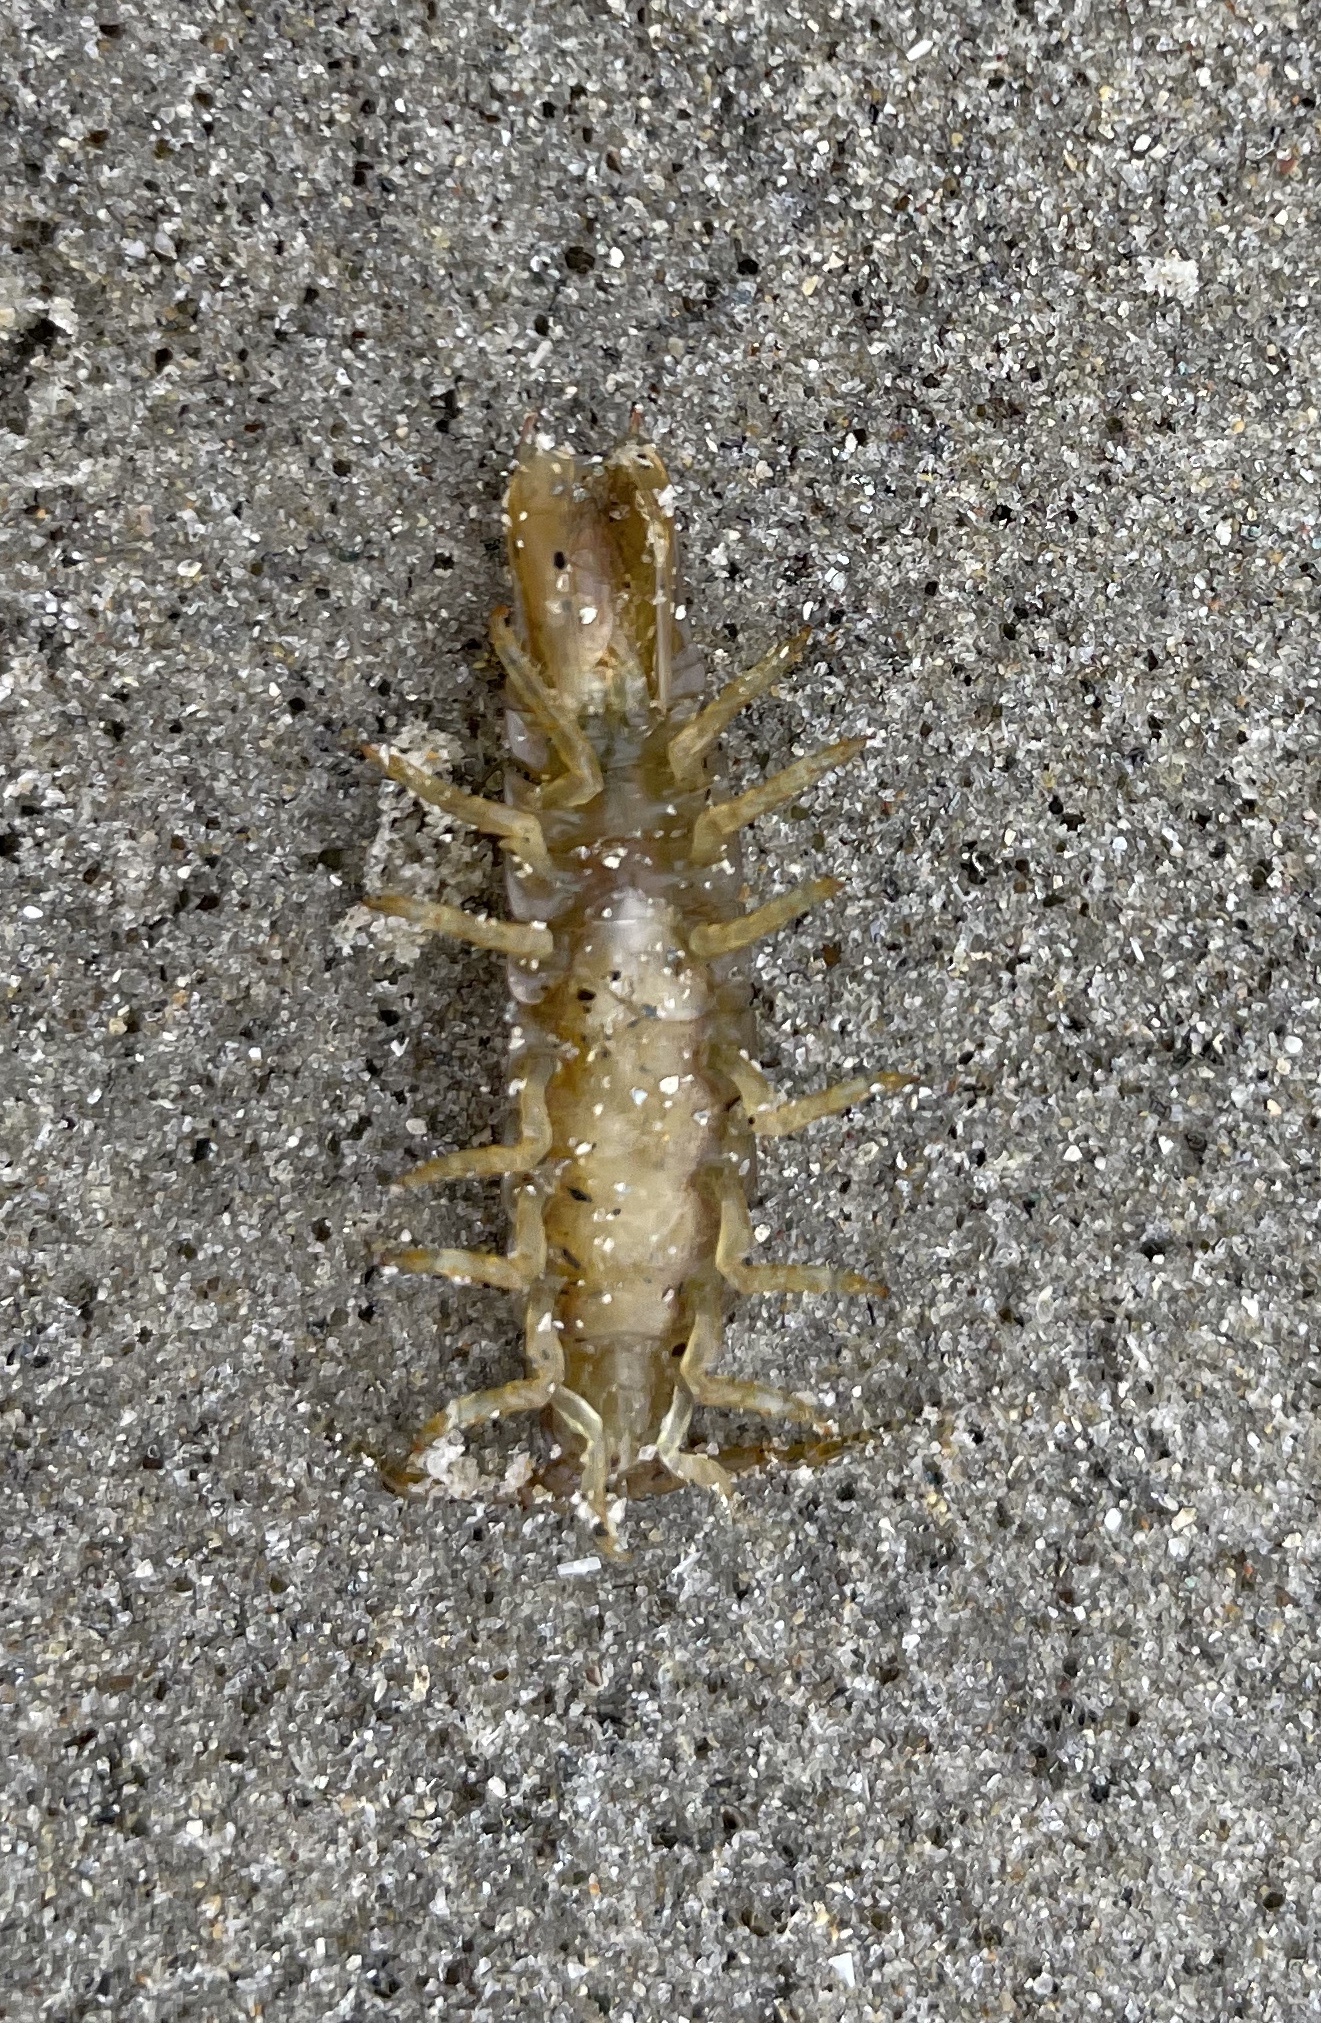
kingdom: Animalia
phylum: Arthropoda
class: Malacostraca
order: Isopoda
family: Idoteidae
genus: Pentidotea
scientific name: Pentidotea resecata
